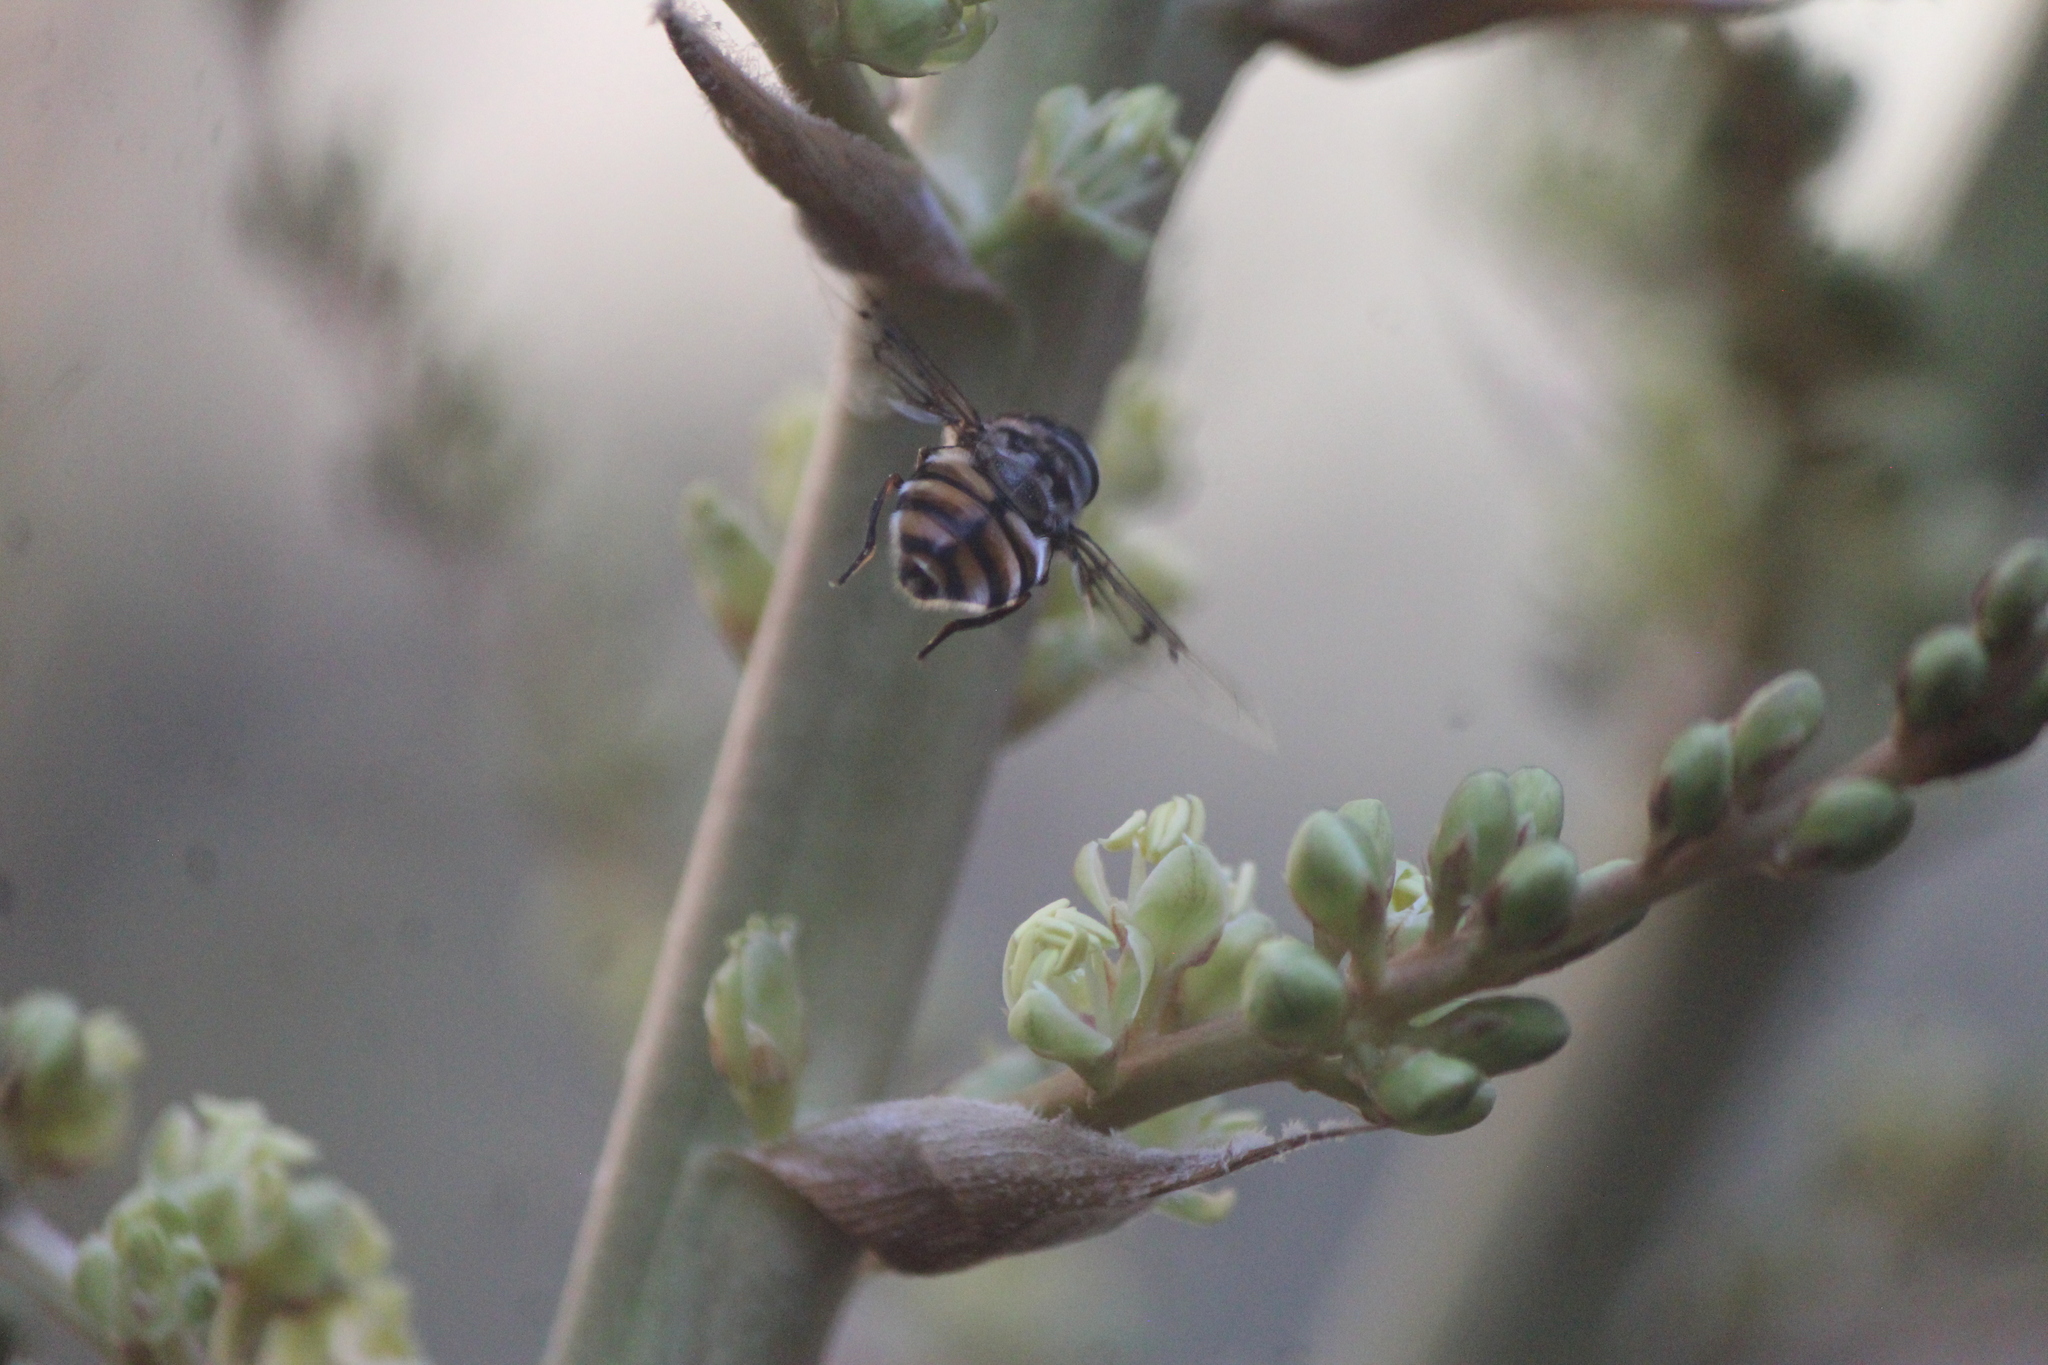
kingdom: Animalia
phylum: Arthropoda
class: Insecta
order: Diptera
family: Syrphidae
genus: Copestylum
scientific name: Copestylum avidum
